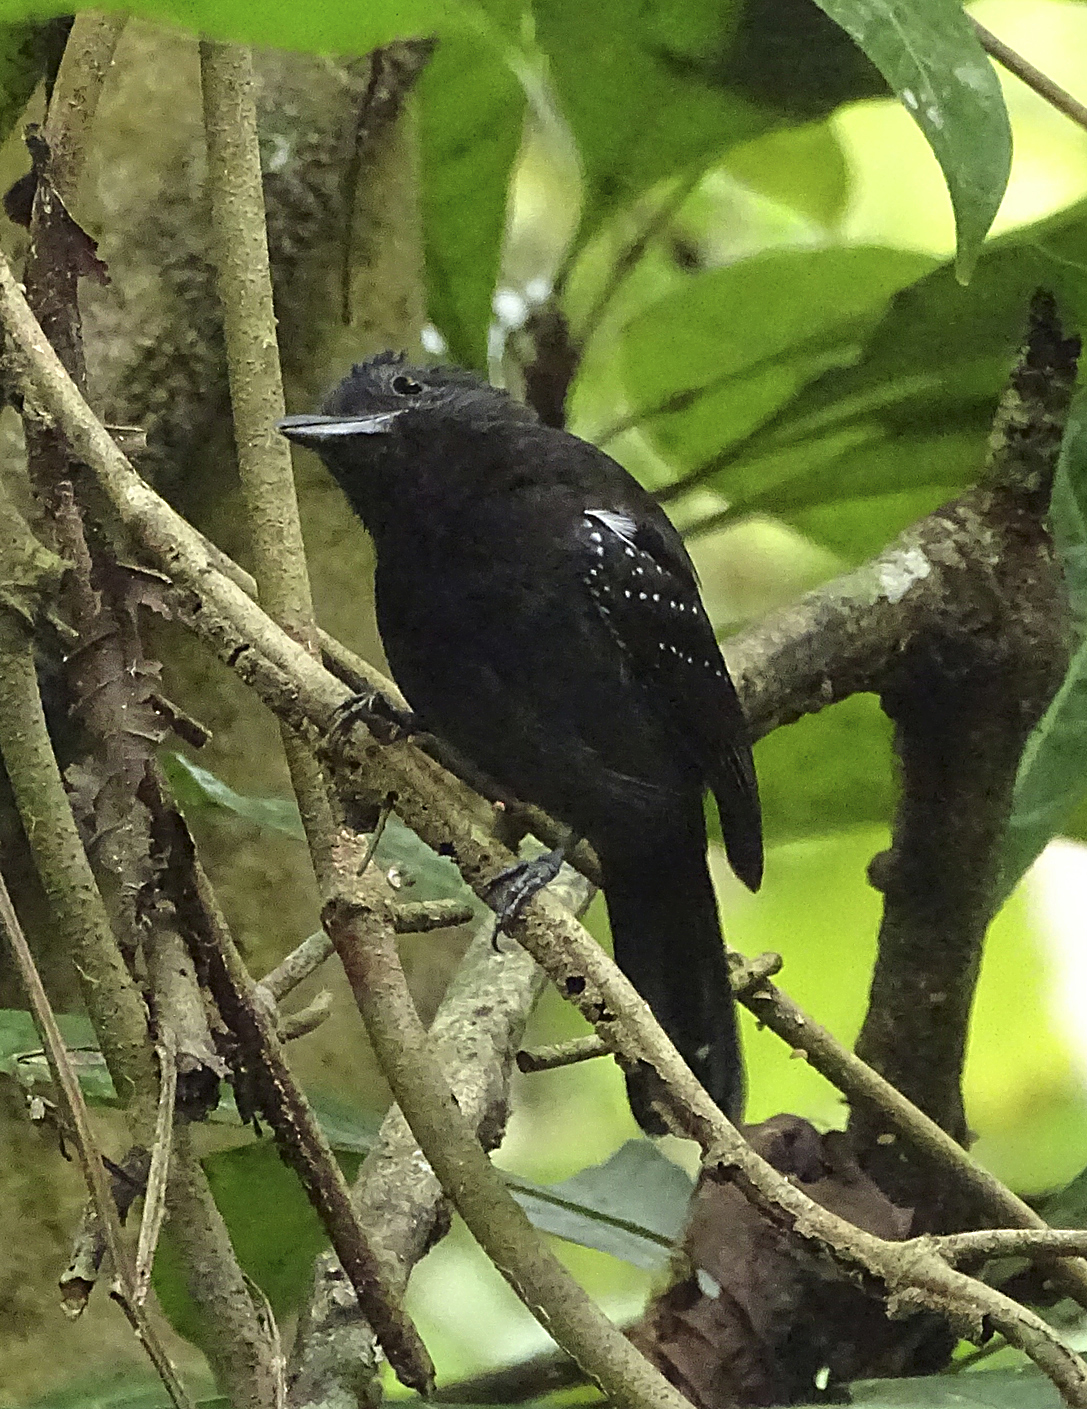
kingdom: Animalia
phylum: Chordata
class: Aves
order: Passeriformes
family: Thamnophilidae
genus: Thamnophilus
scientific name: Thamnophilus bridgesi
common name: Black-hooded antshrike
